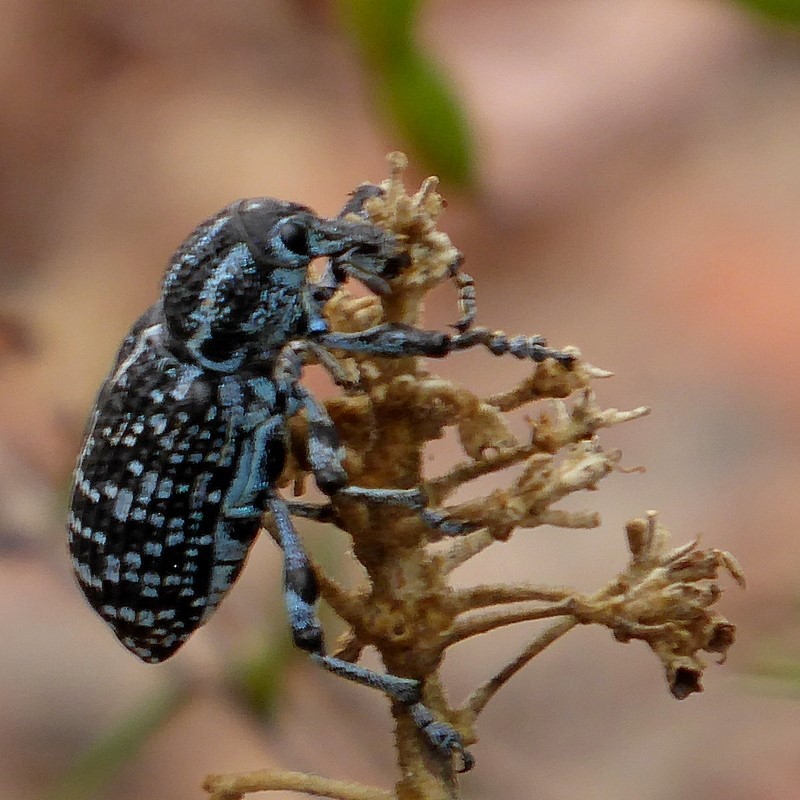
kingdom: Animalia
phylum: Arthropoda
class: Insecta
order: Coleoptera
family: Curculionidae
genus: Chrysolopus
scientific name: Chrysolopus spectabilis
